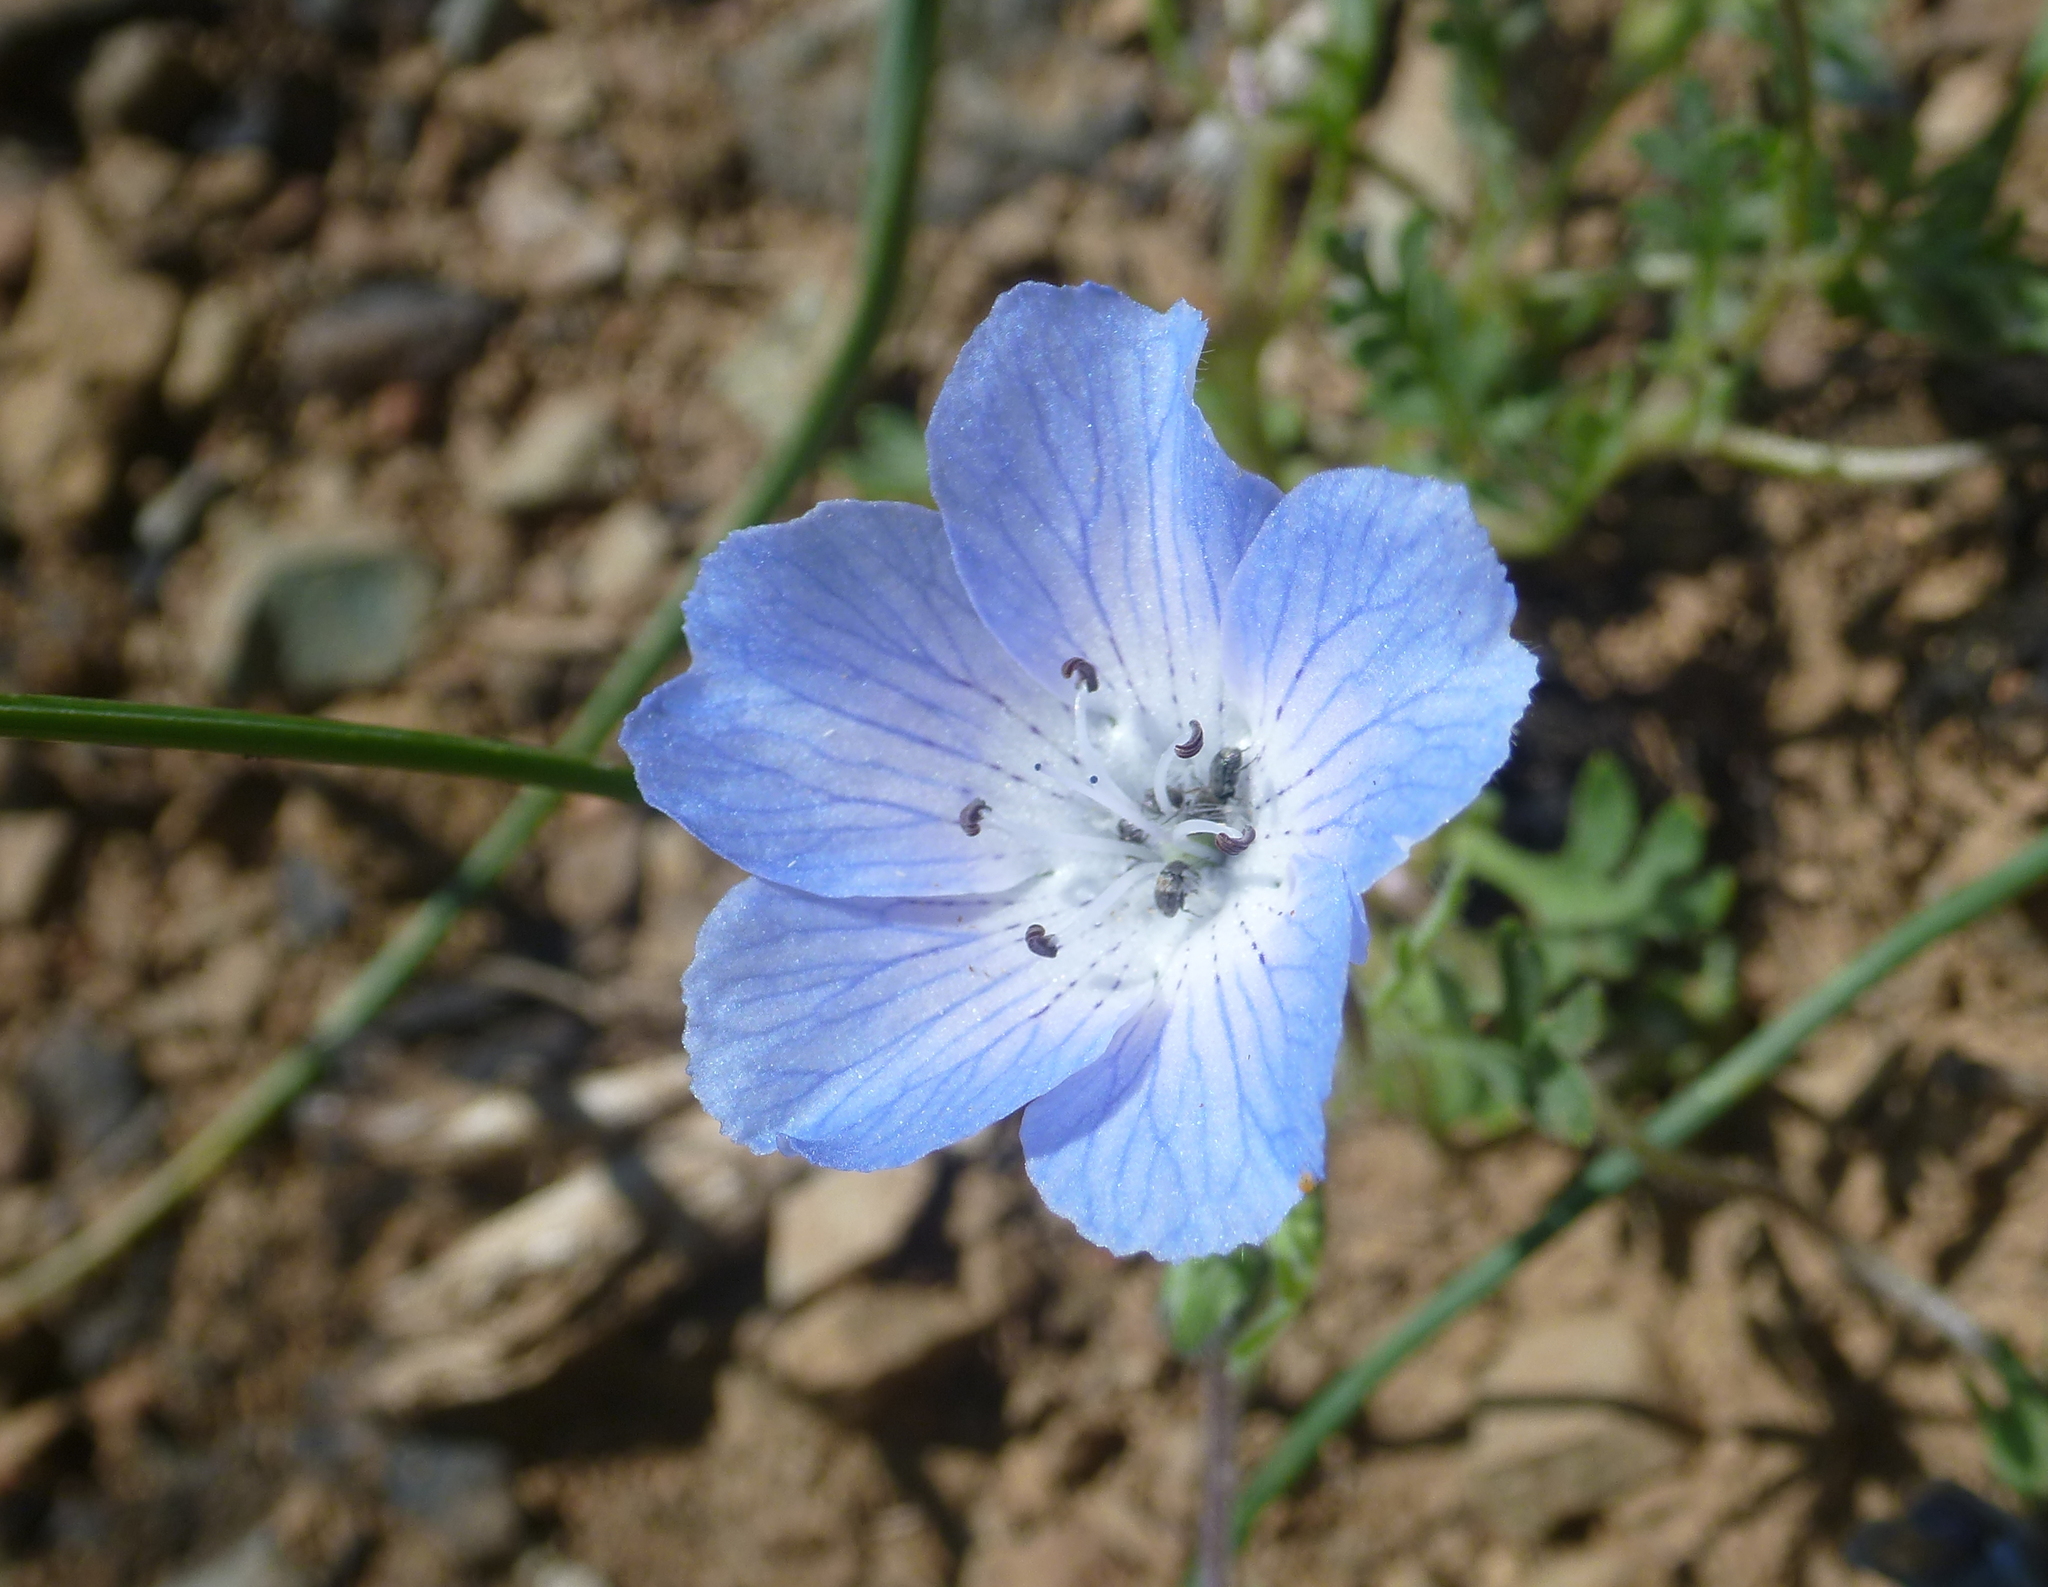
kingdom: Plantae
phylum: Tracheophyta
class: Magnoliopsida
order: Boraginales
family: Hydrophyllaceae
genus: Nemophila
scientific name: Nemophila menziesii
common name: Baby's-blue-eyes
